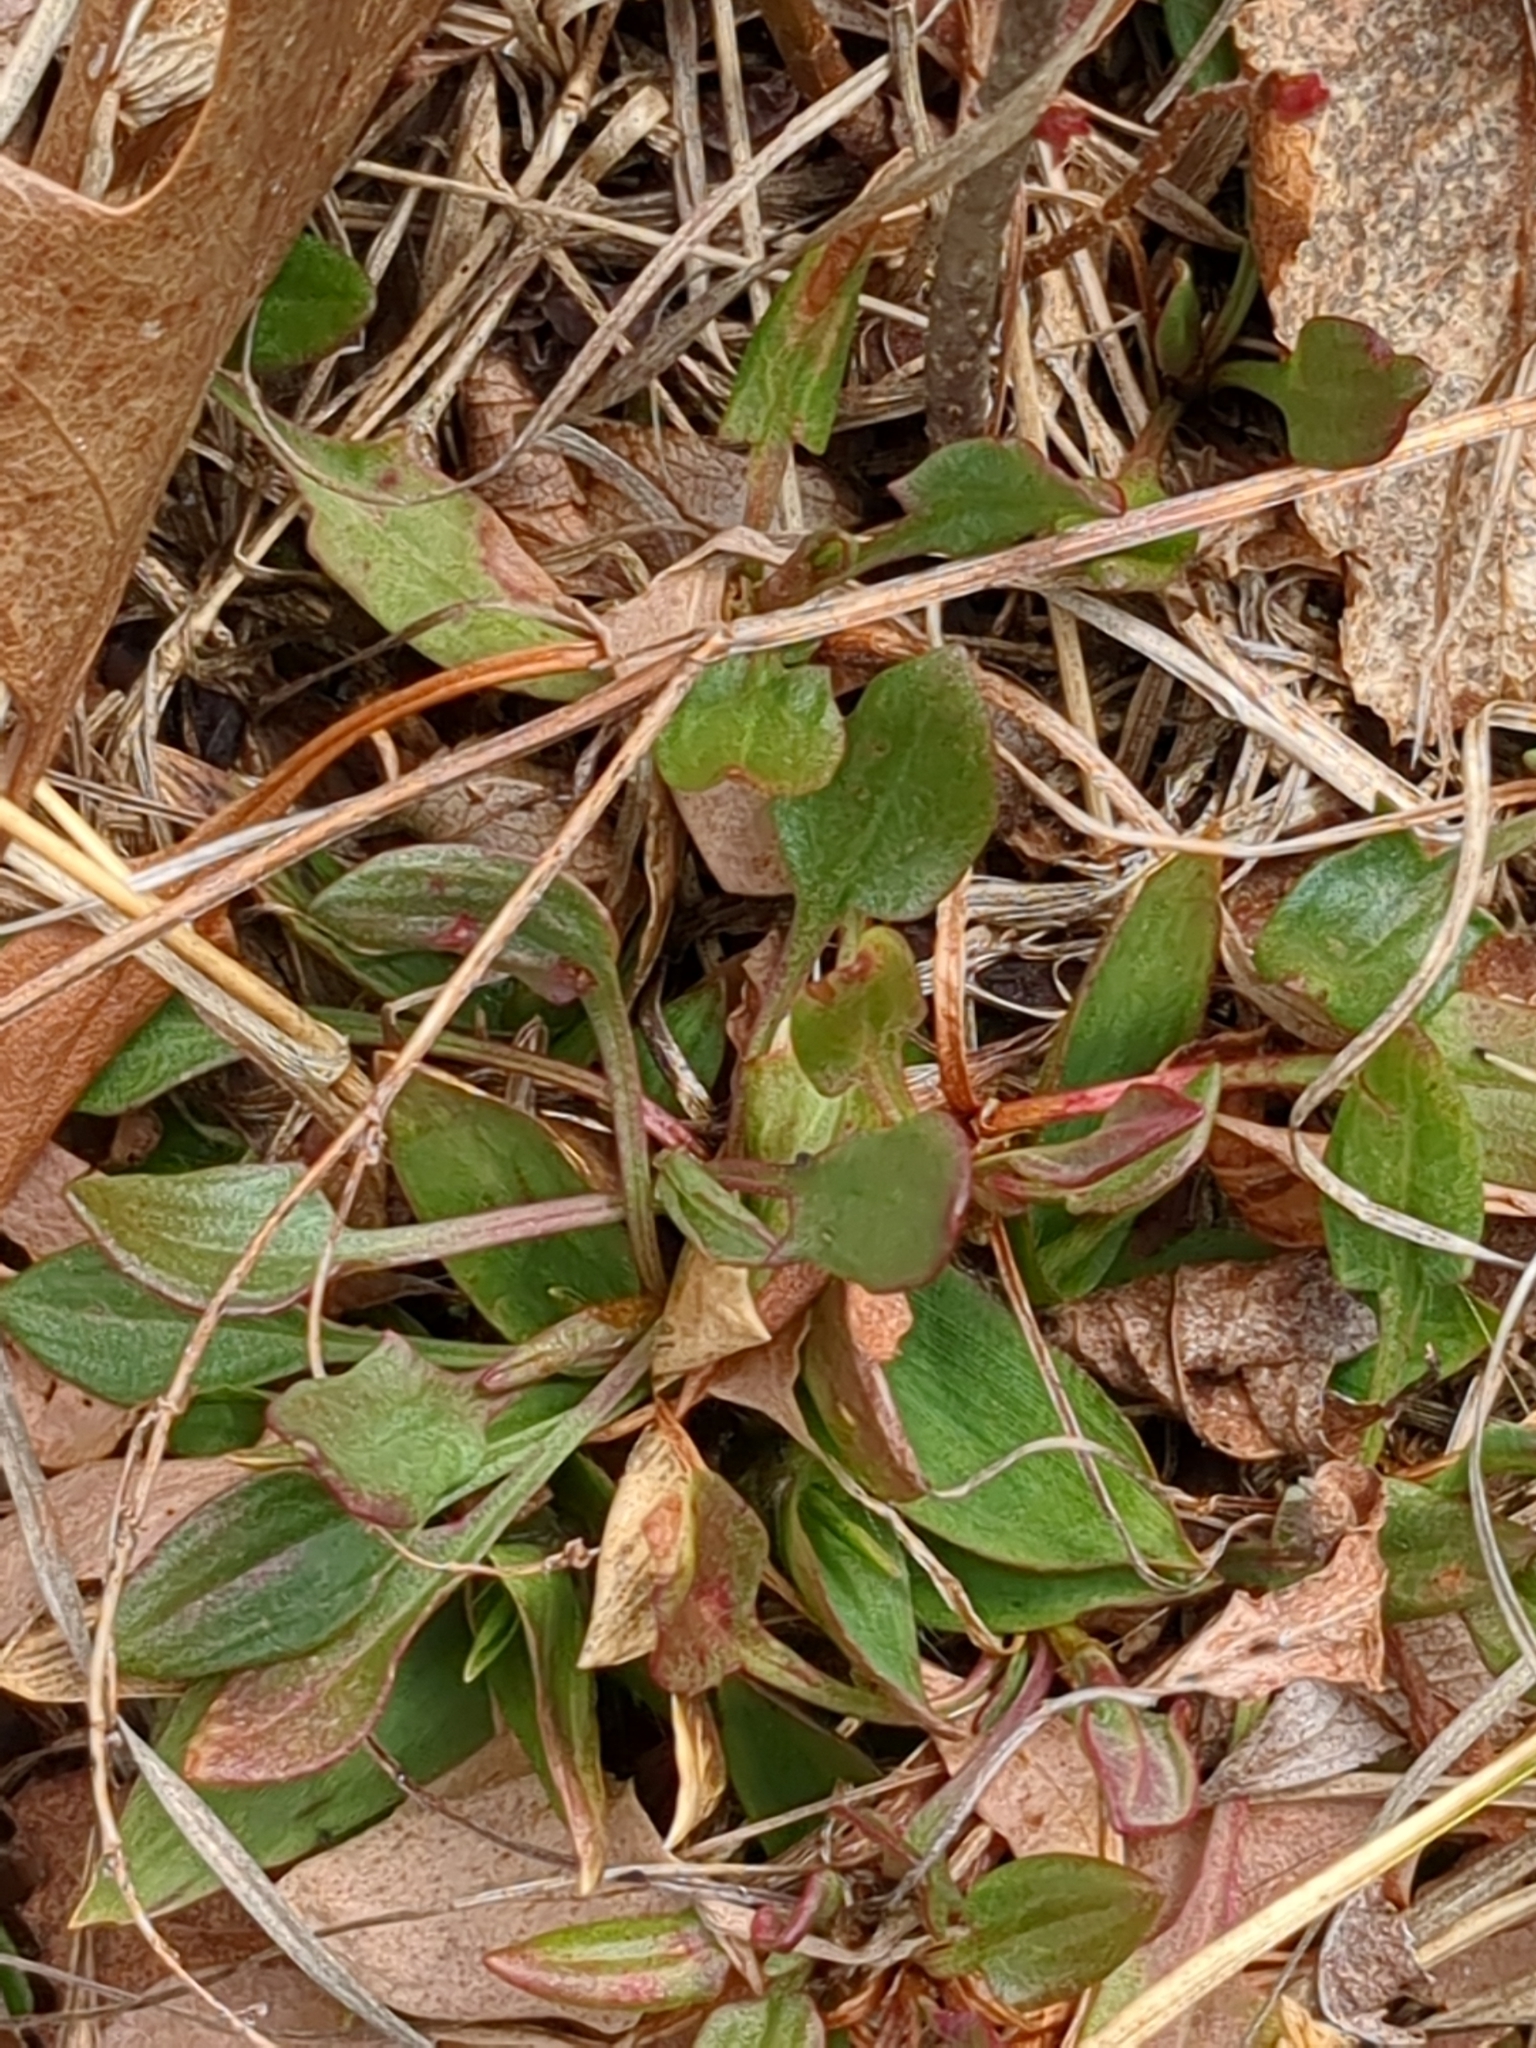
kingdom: Plantae
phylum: Tracheophyta
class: Magnoliopsida
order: Caryophyllales
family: Polygonaceae
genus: Rumex
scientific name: Rumex acetosella
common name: Common sheep sorrel
